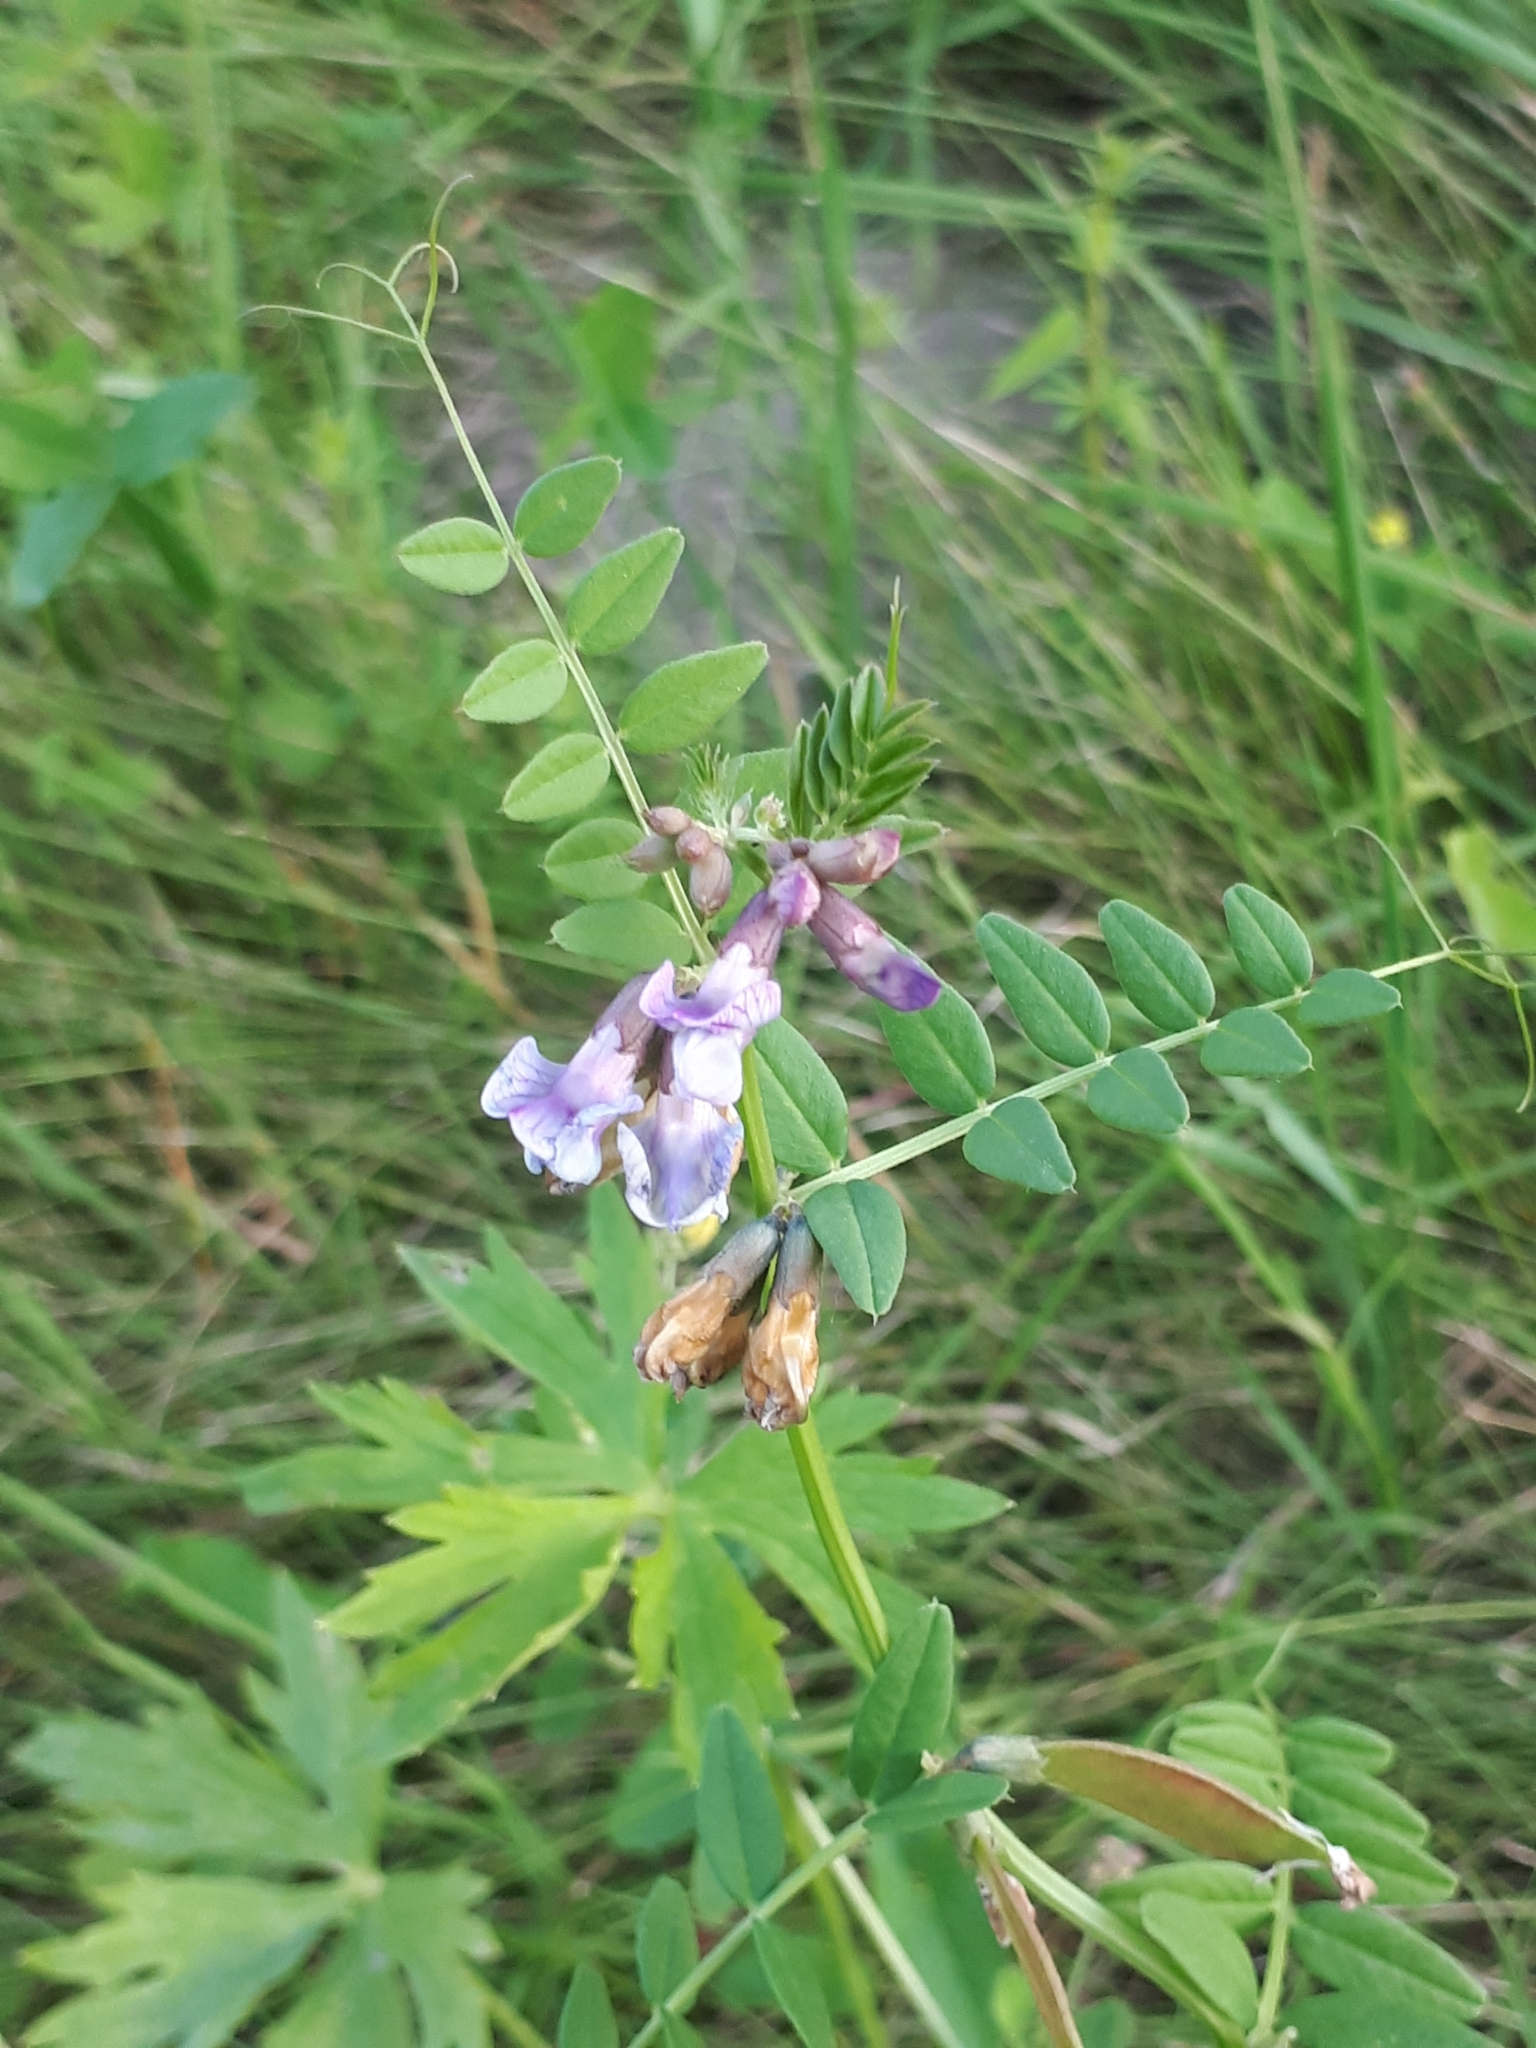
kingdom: Plantae
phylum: Tracheophyta
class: Magnoliopsida
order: Fabales
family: Fabaceae
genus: Vicia
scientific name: Vicia sepium
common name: Bush vetch
